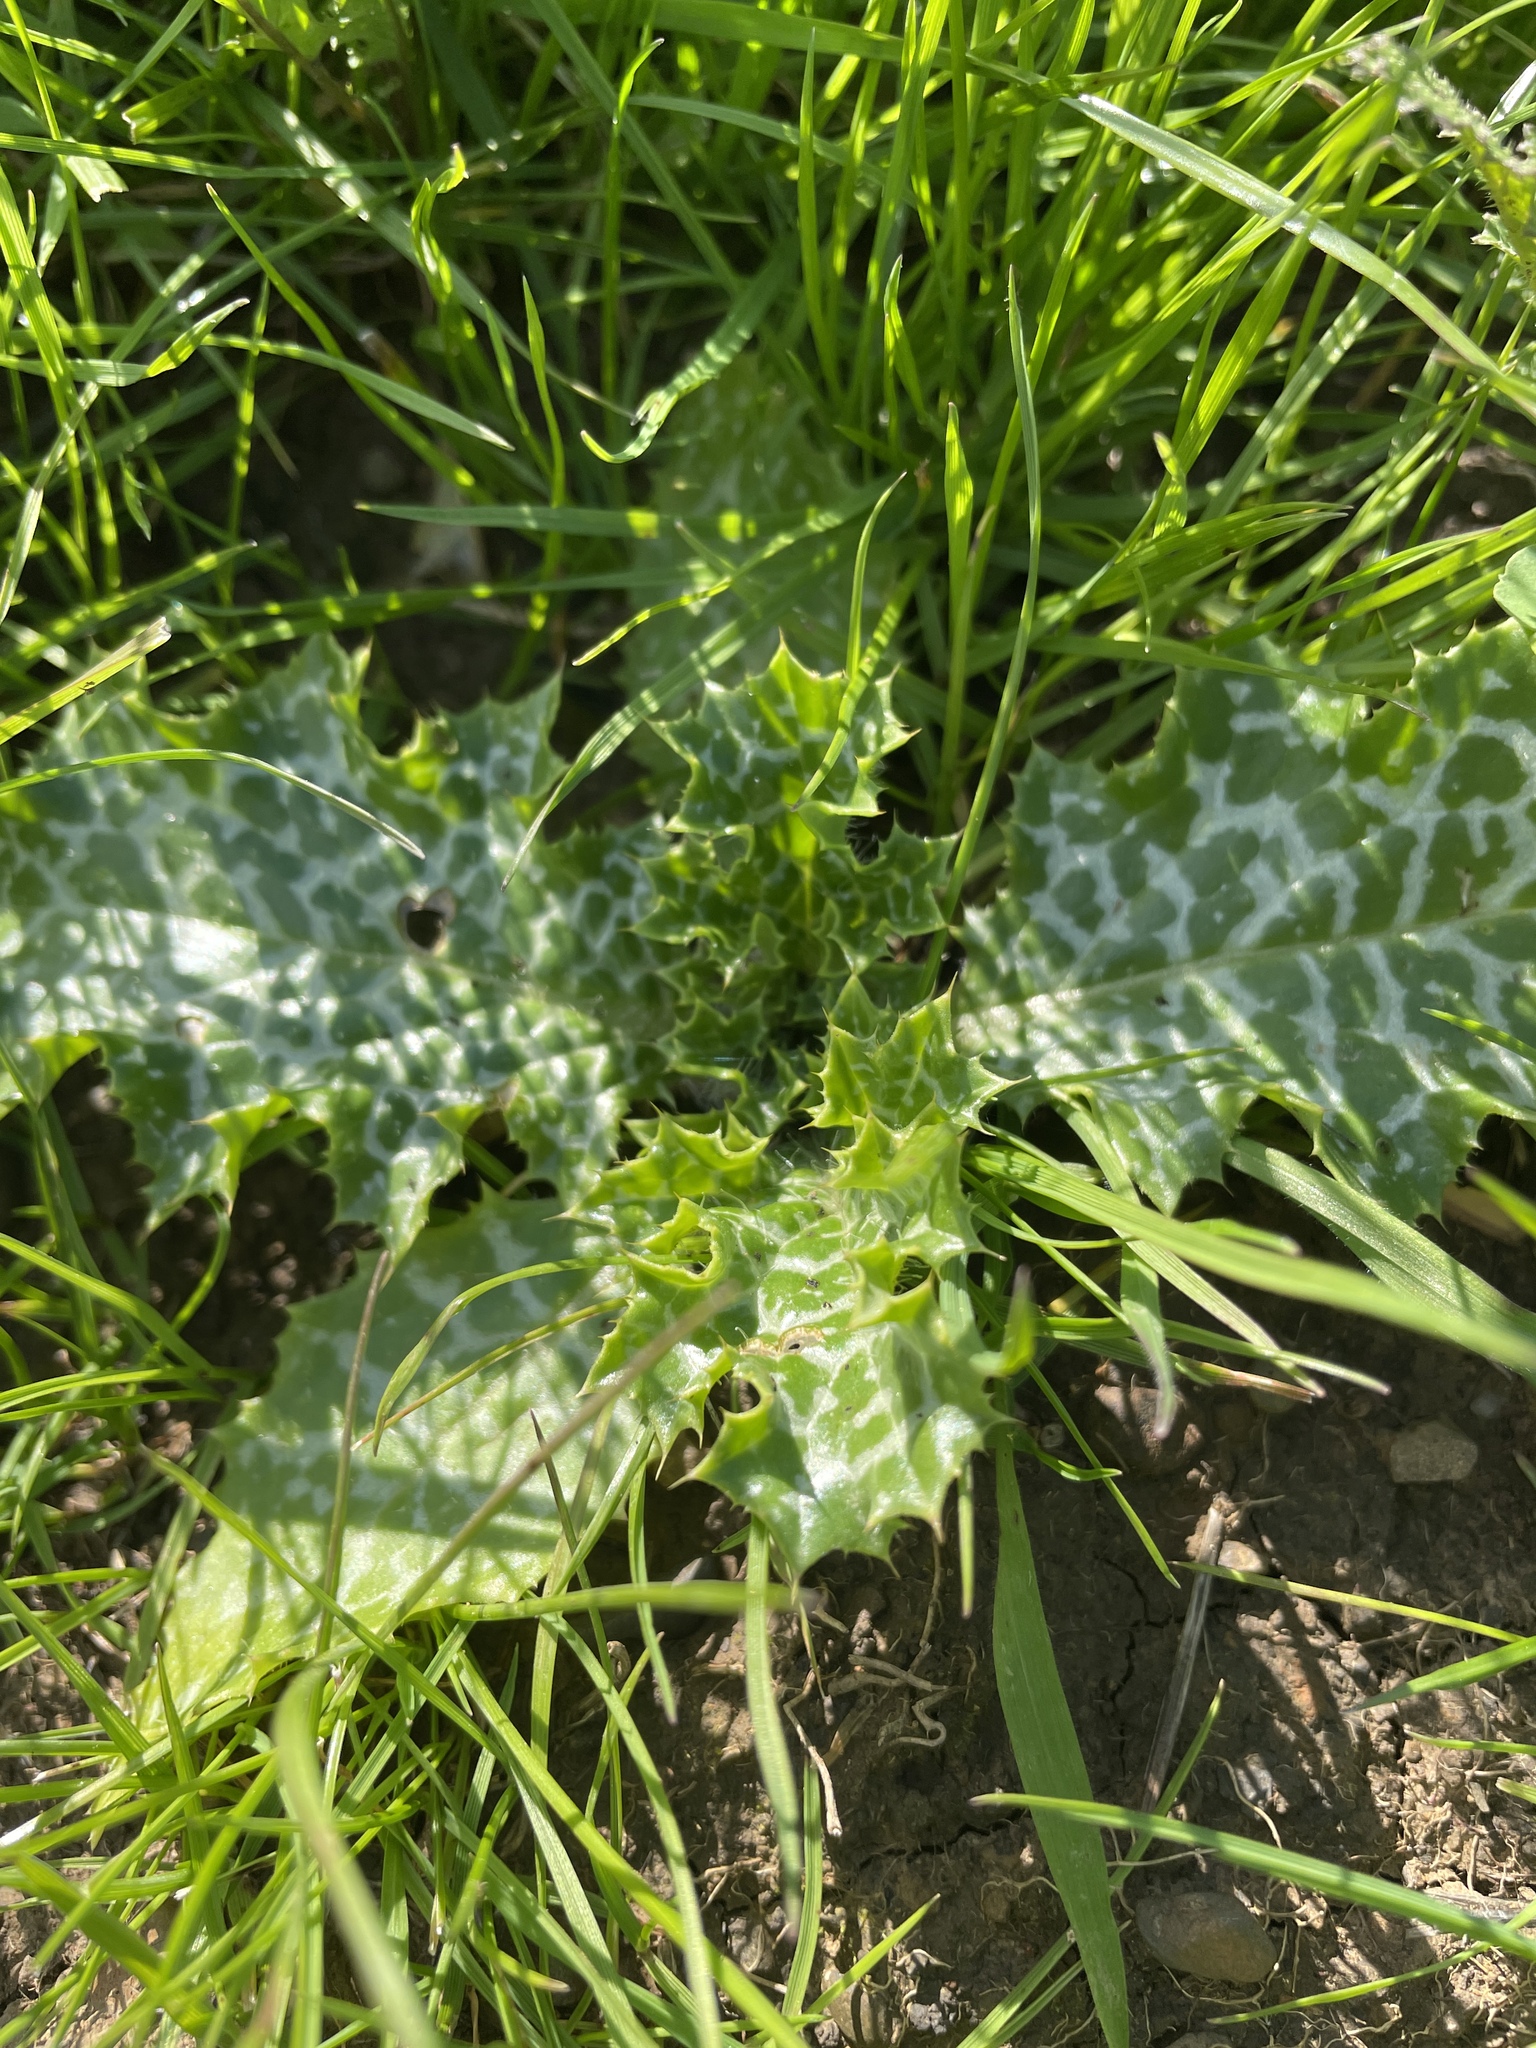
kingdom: Plantae
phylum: Tracheophyta
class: Magnoliopsida
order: Asterales
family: Asteraceae
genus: Silybum
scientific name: Silybum marianum
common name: Milk thistle
